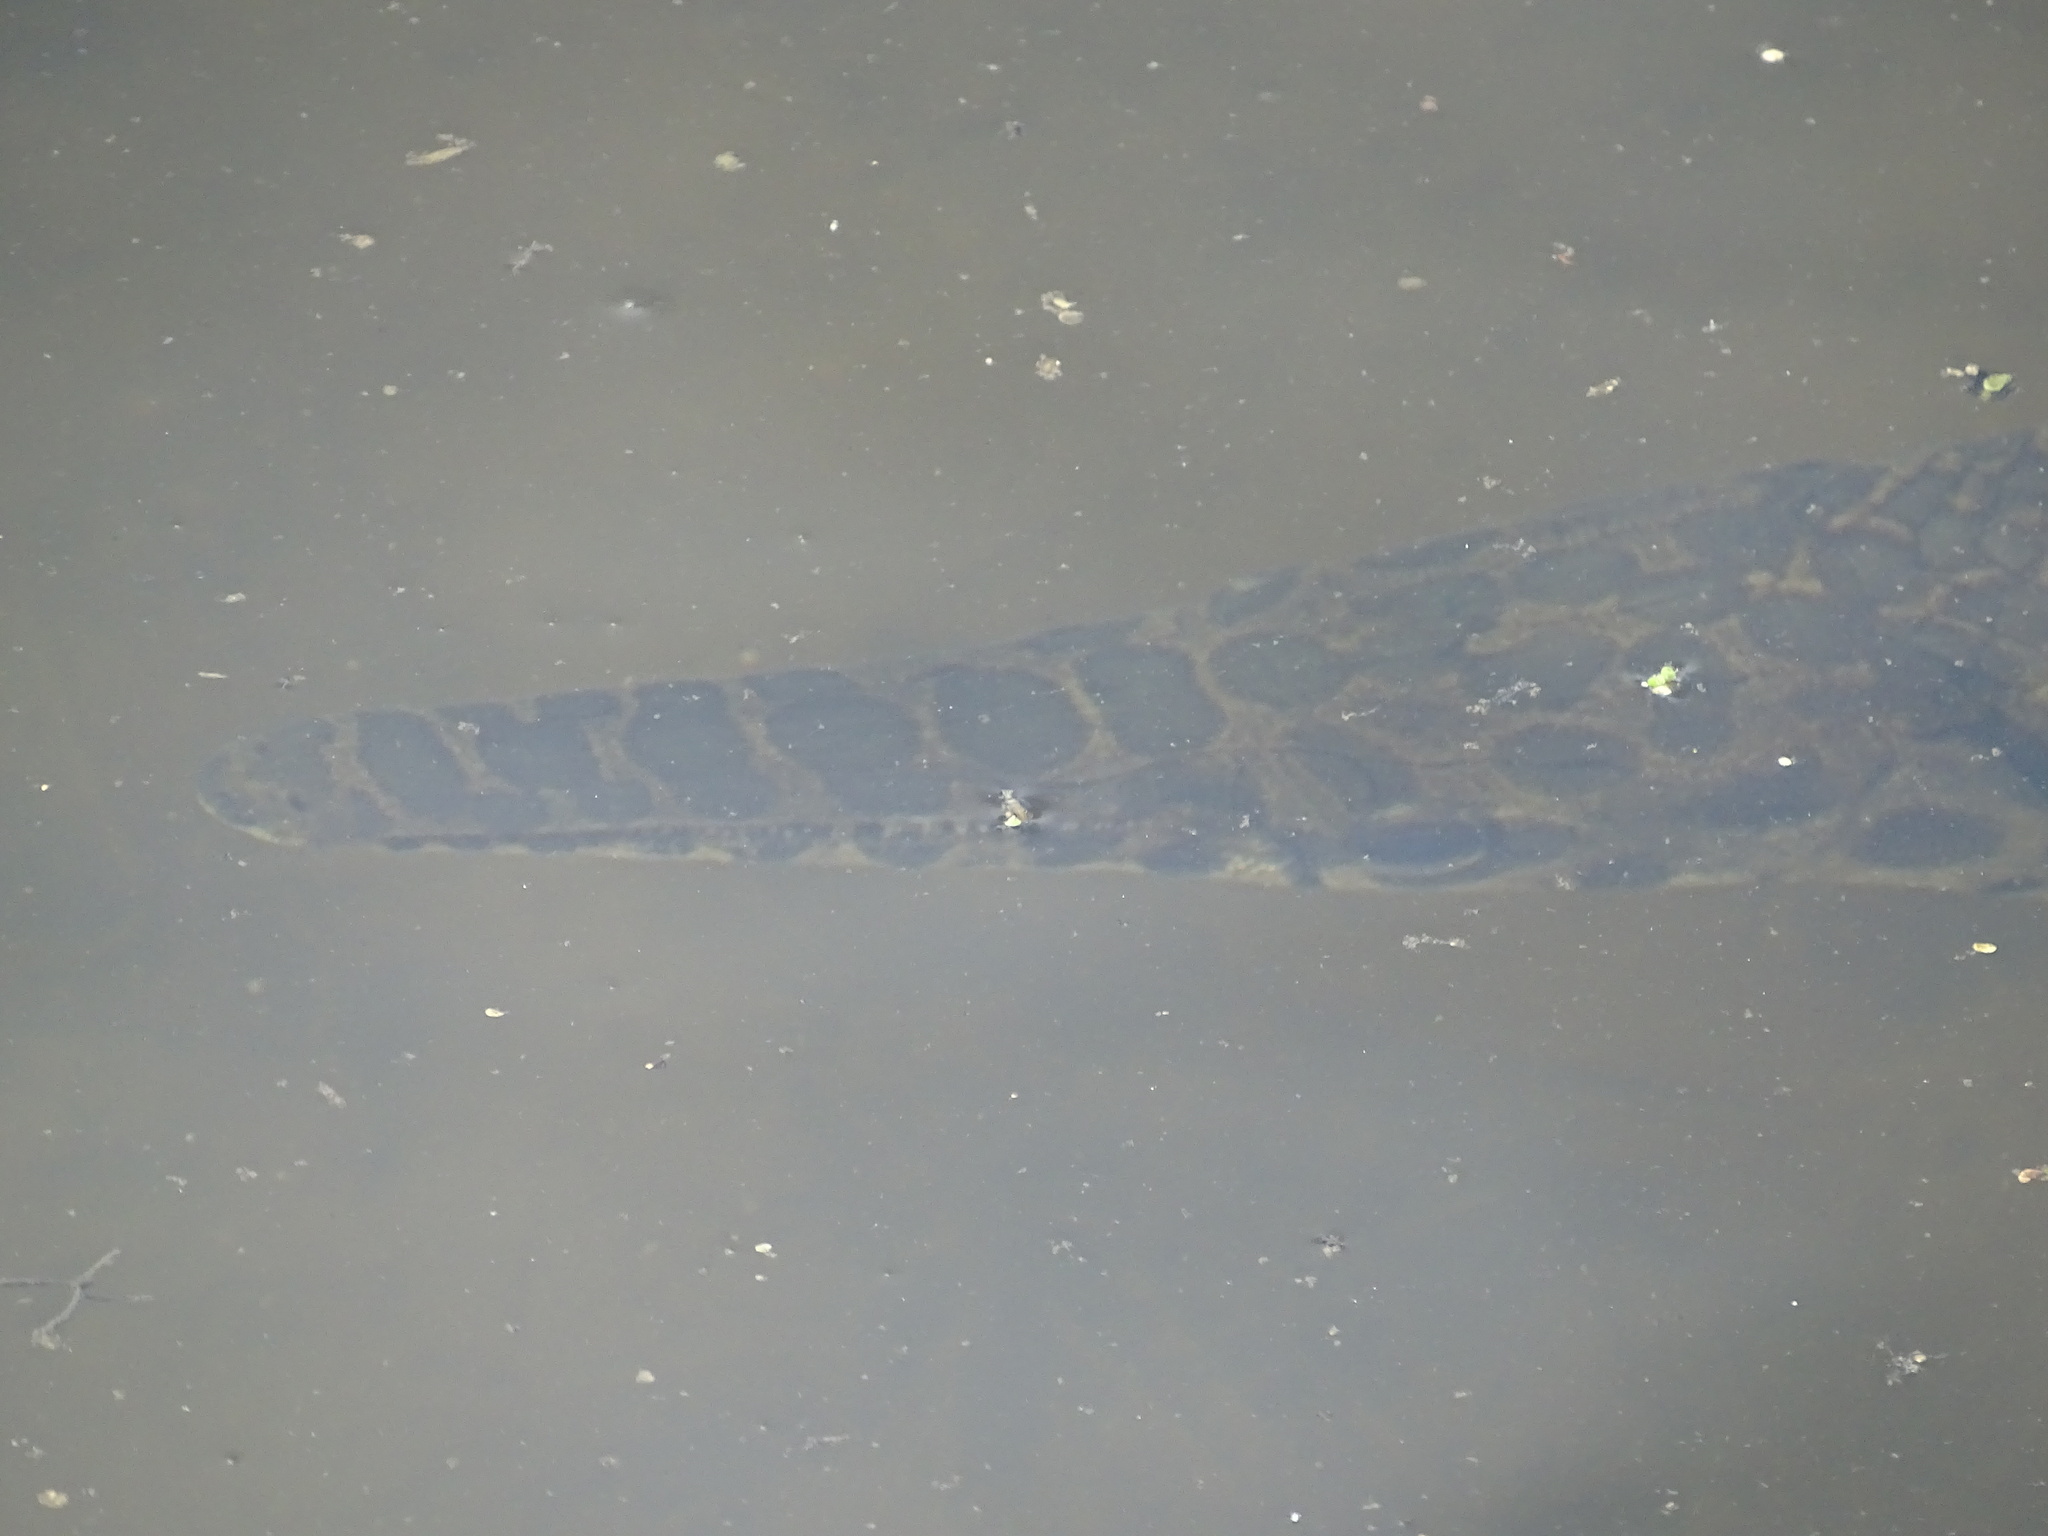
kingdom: Animalia
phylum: Chordata
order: Lepisosteiformes
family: Lepisosteidae
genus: Lepisosteus
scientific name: Lepisosteus oculatus
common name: Spotted gar
